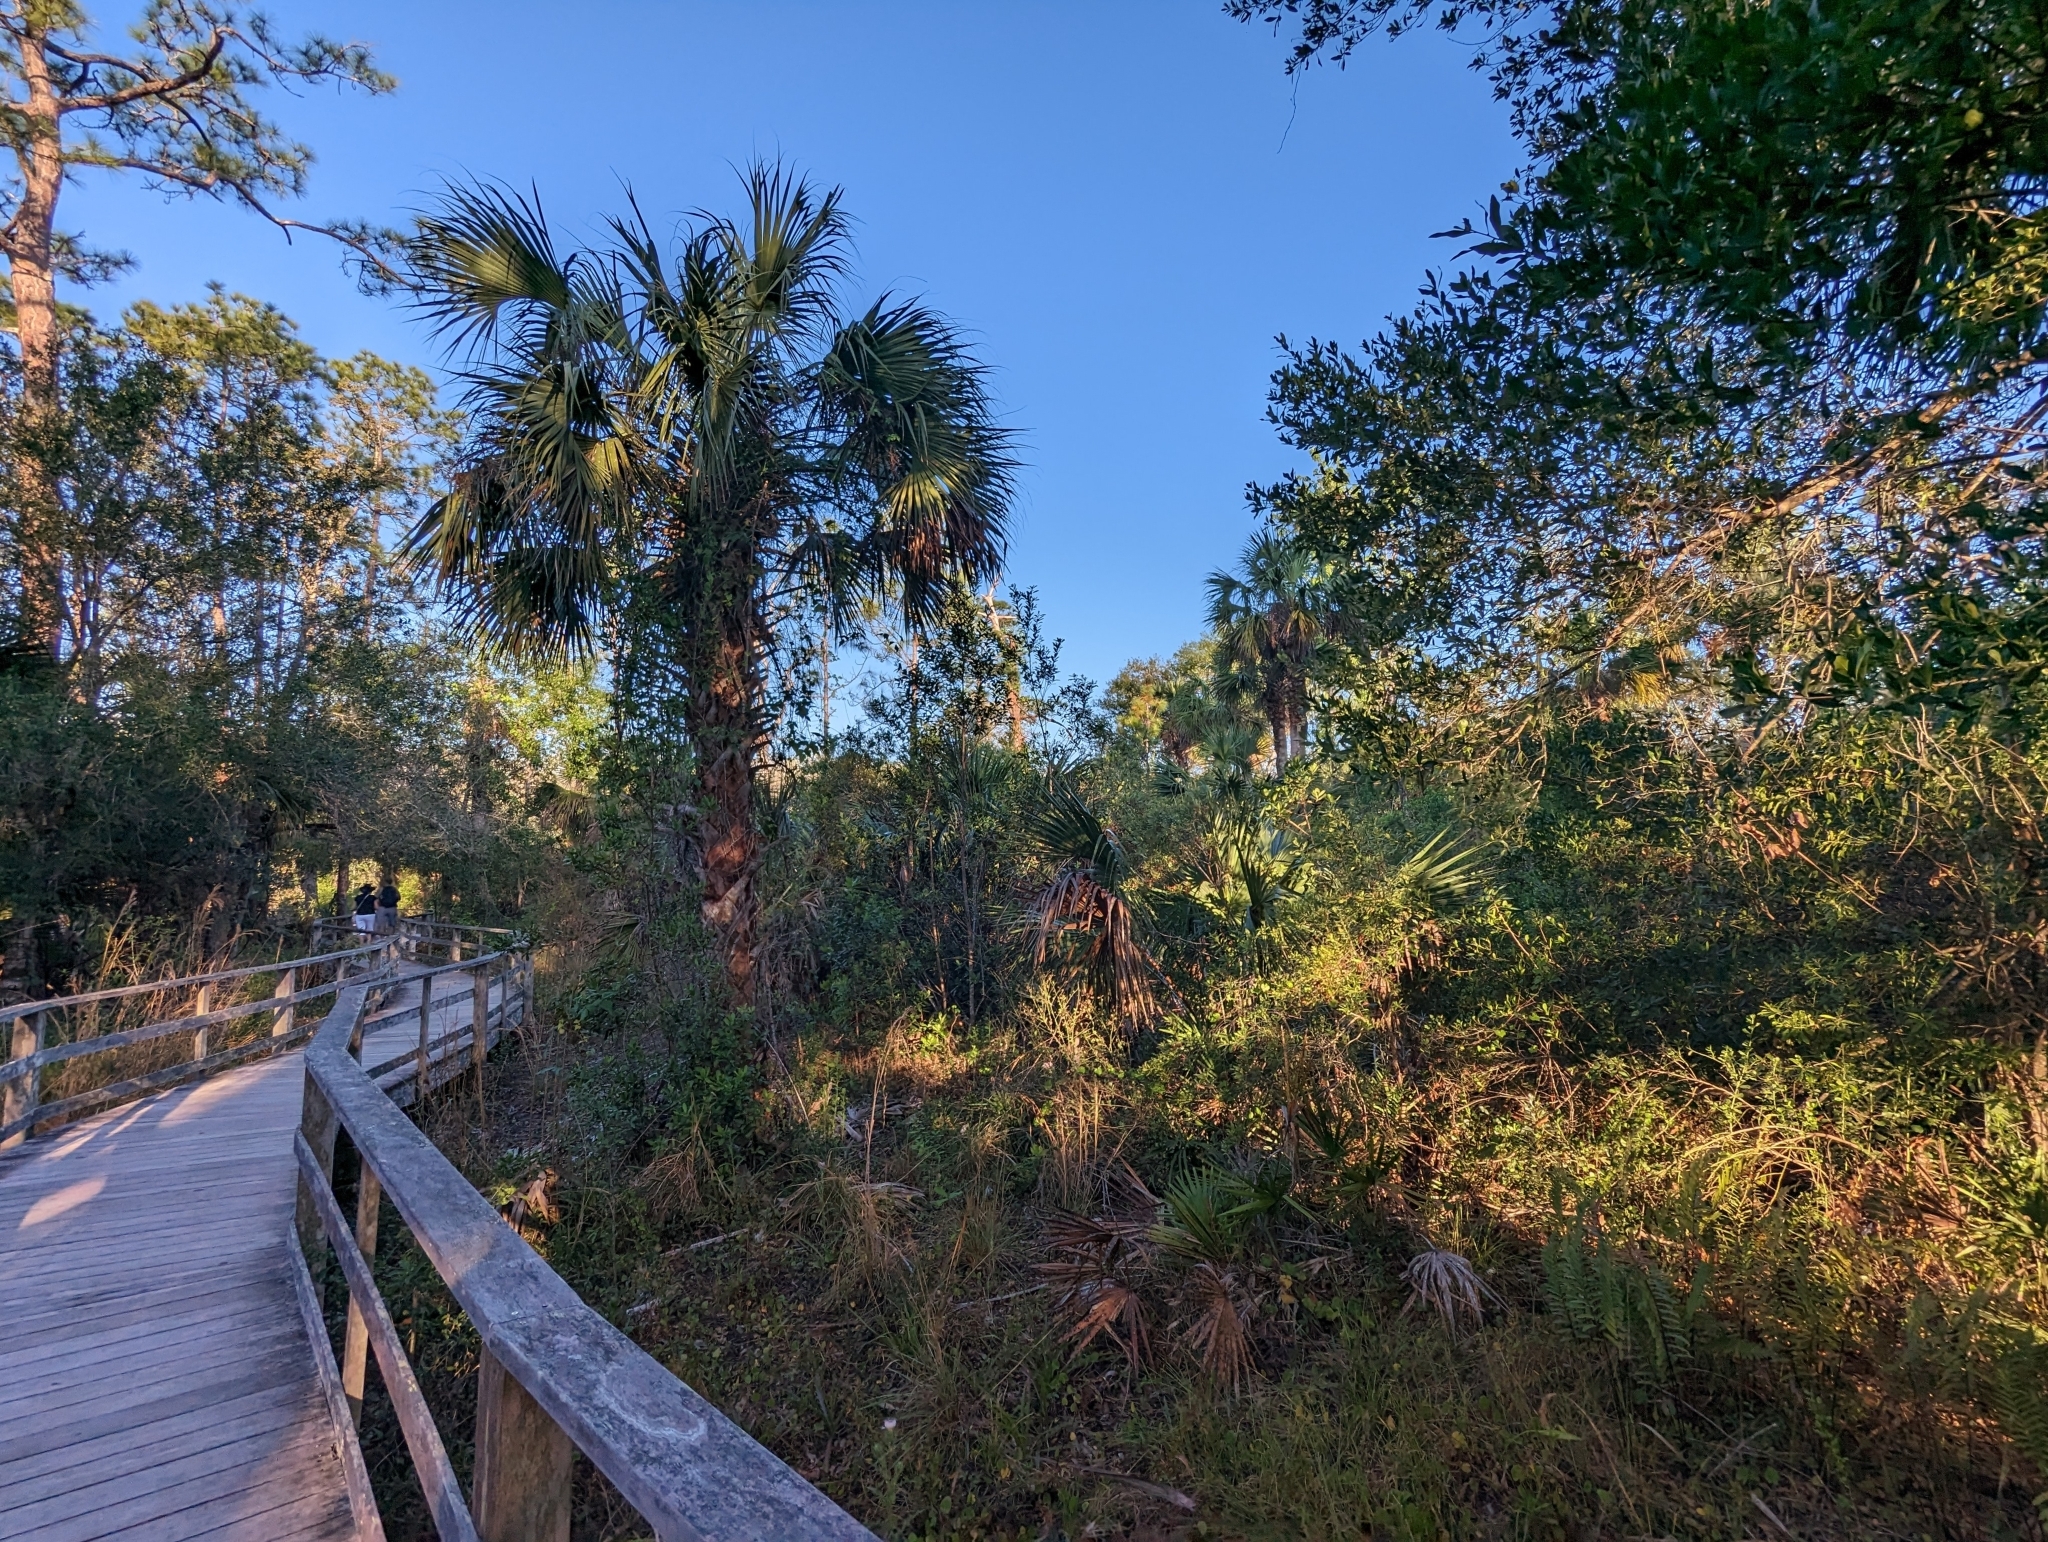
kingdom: Plantae
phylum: Tracheophyta
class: Liliopsida
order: Arecales
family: Arecaceae
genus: Sabal
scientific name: Sabal palmetto
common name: Blue palmetto
